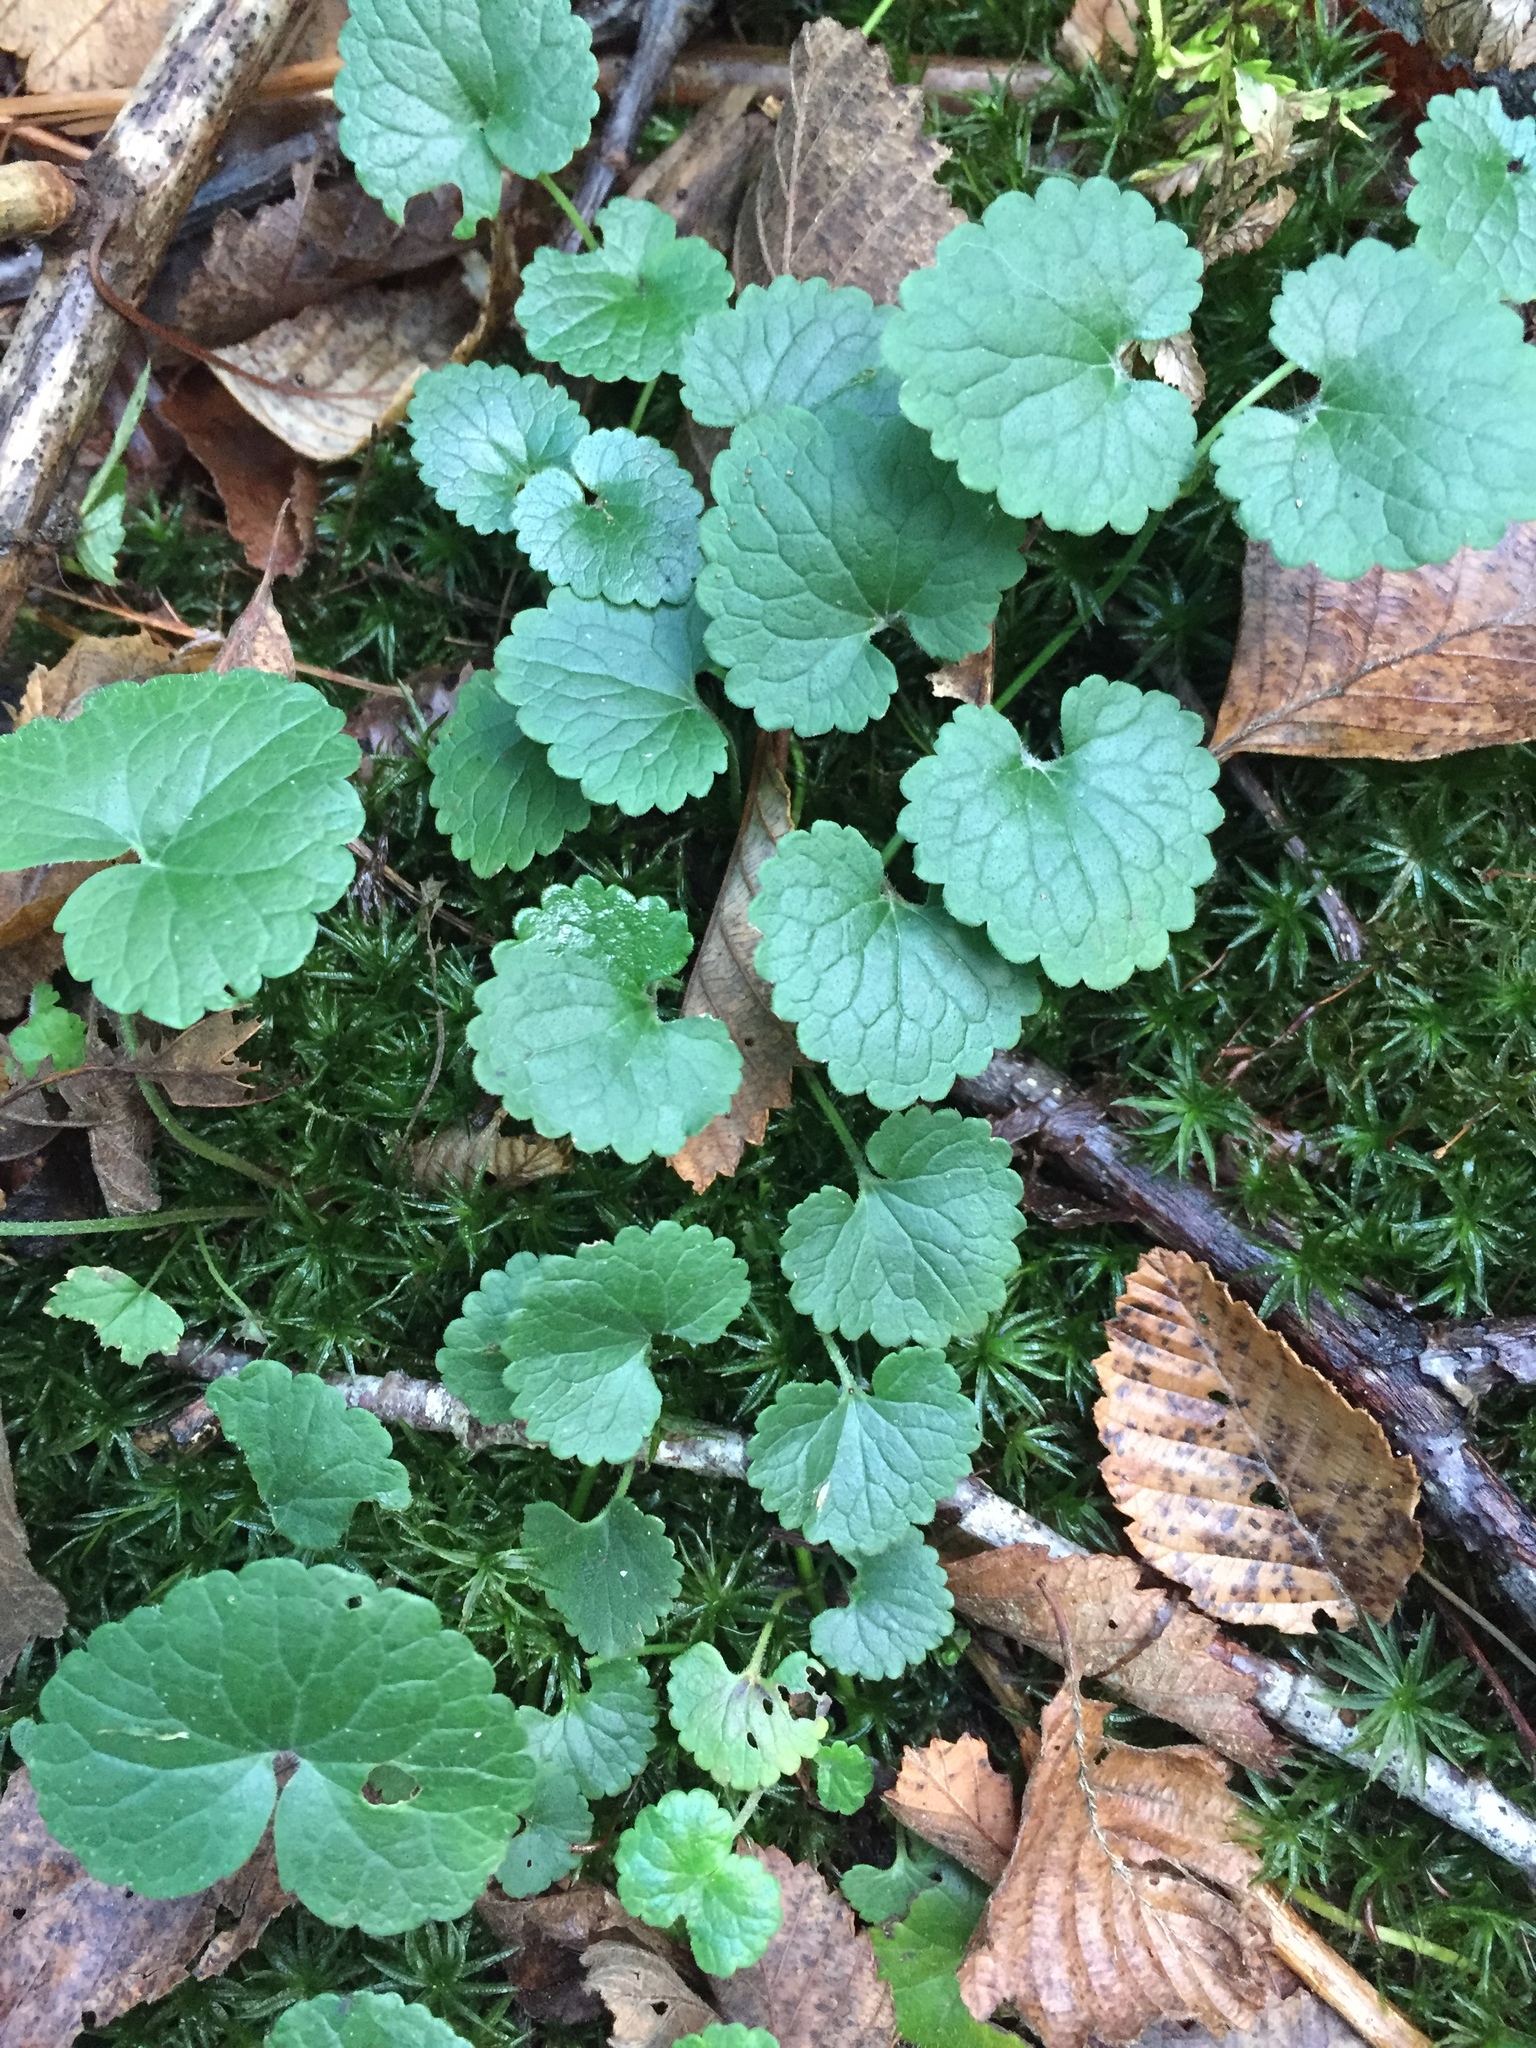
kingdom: Plantae
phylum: Tracheophyta
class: Magnoliopsida
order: Lamiales
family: Lamiaceae
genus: Glechoma
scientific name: Glechoma hederacea
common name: Ground ivy
